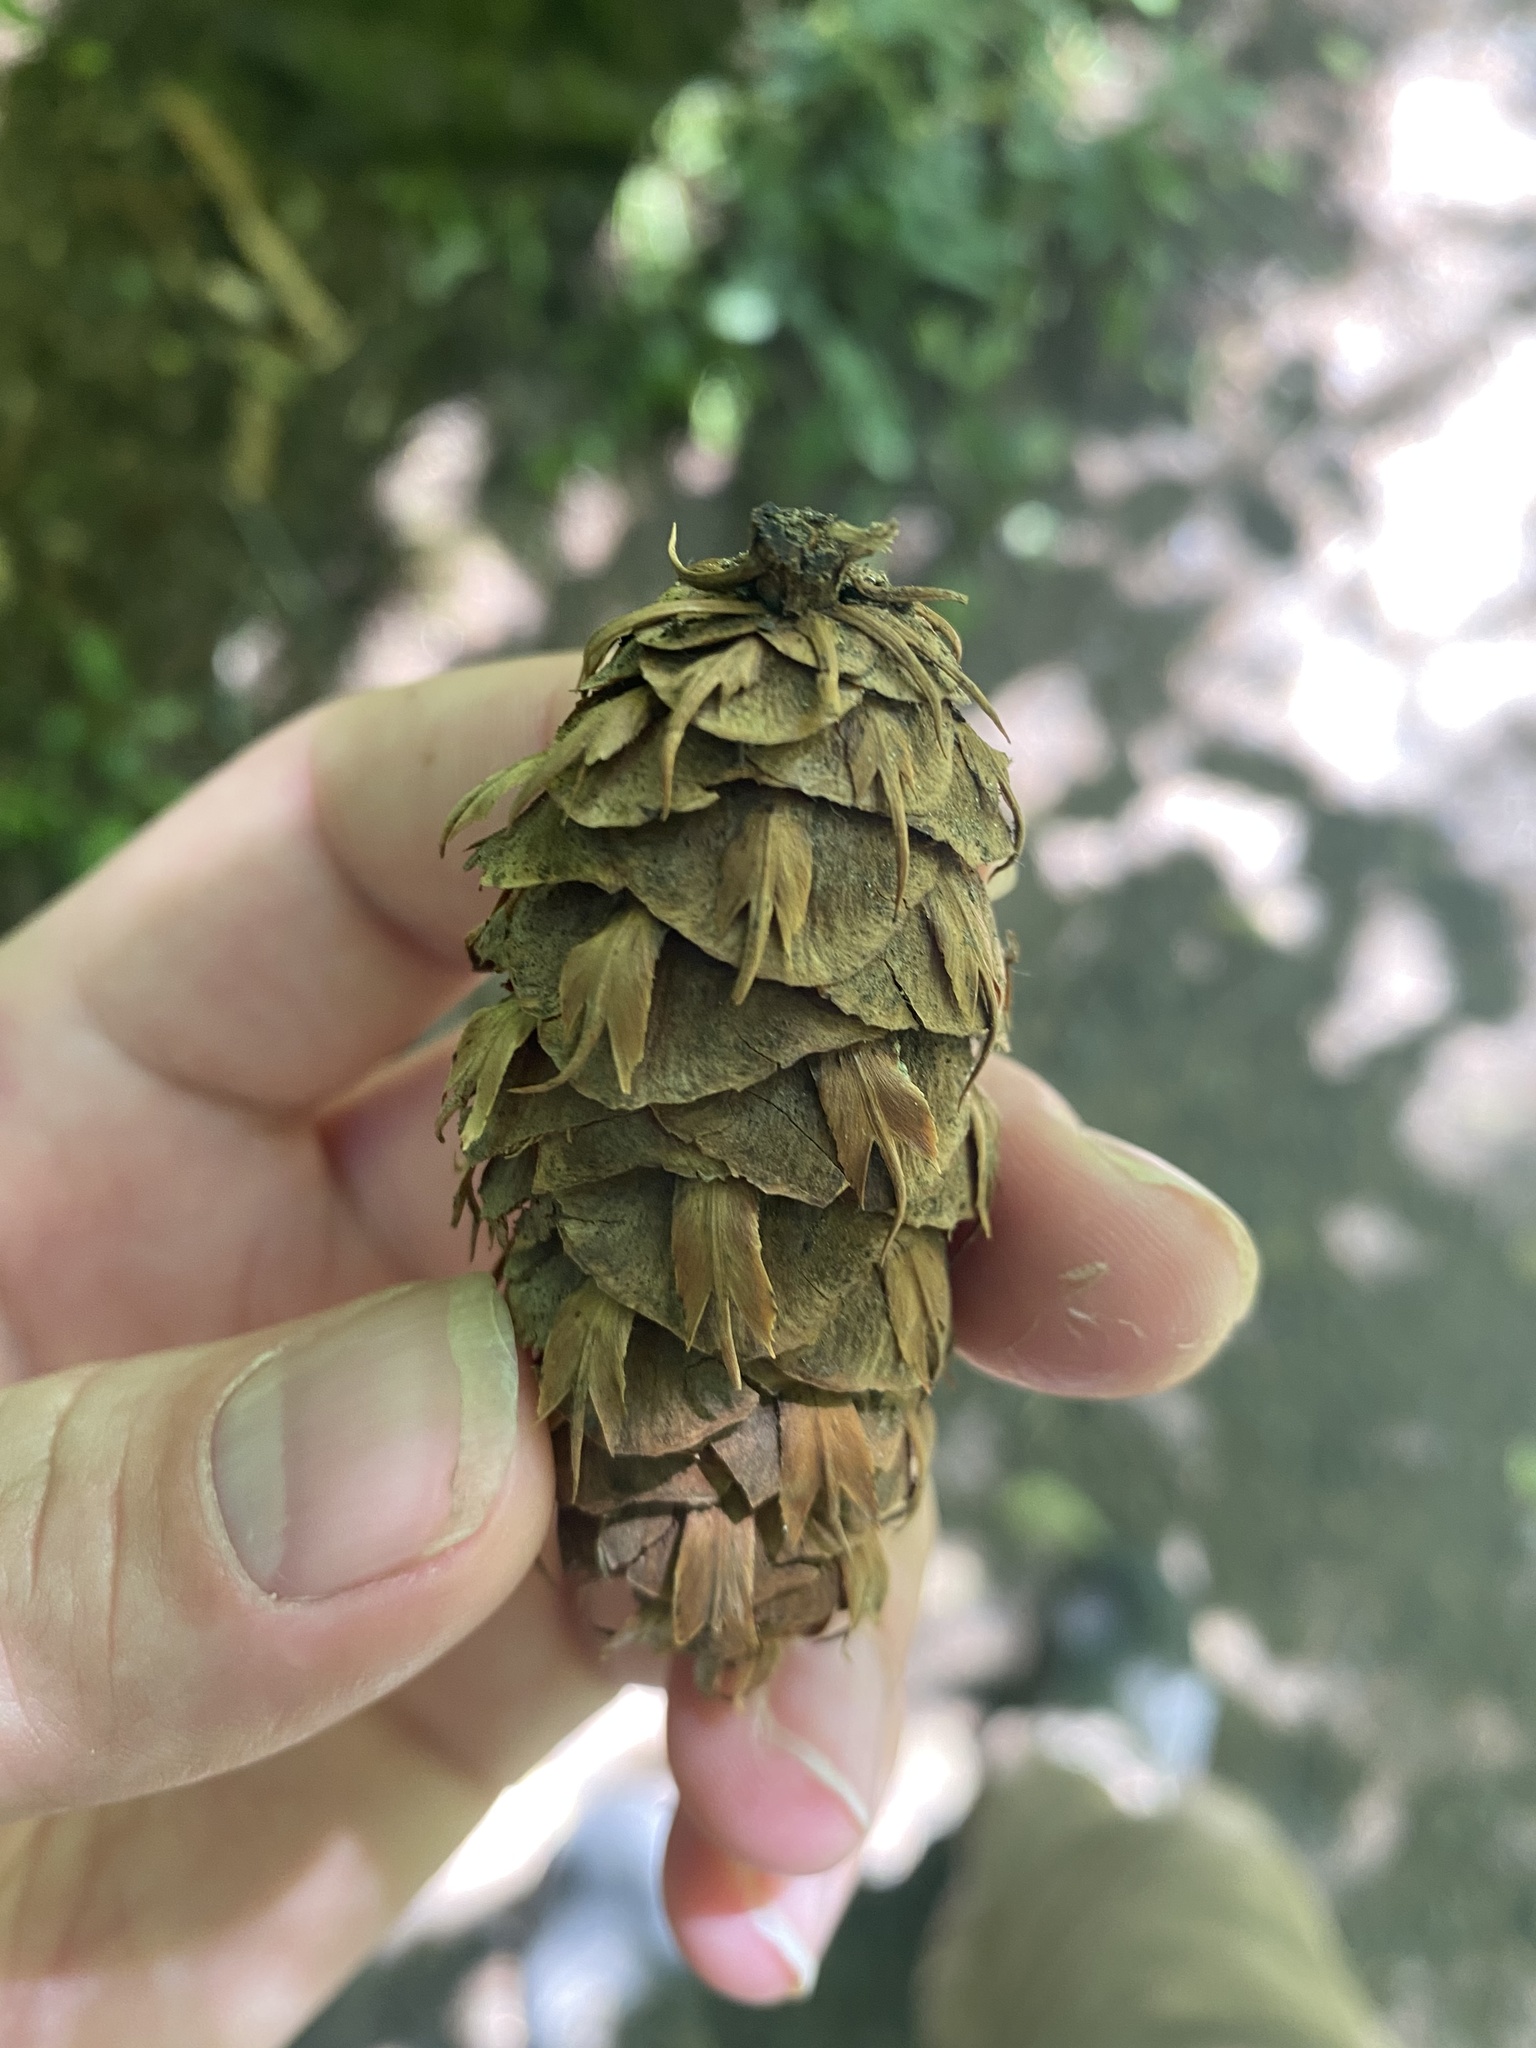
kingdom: Plantae
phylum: Tracheophyta
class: Pinopsida
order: Pinales
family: Pinaceae
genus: Pseudotsuga
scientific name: Pseudotsuga menziesii
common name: Douglas fir
